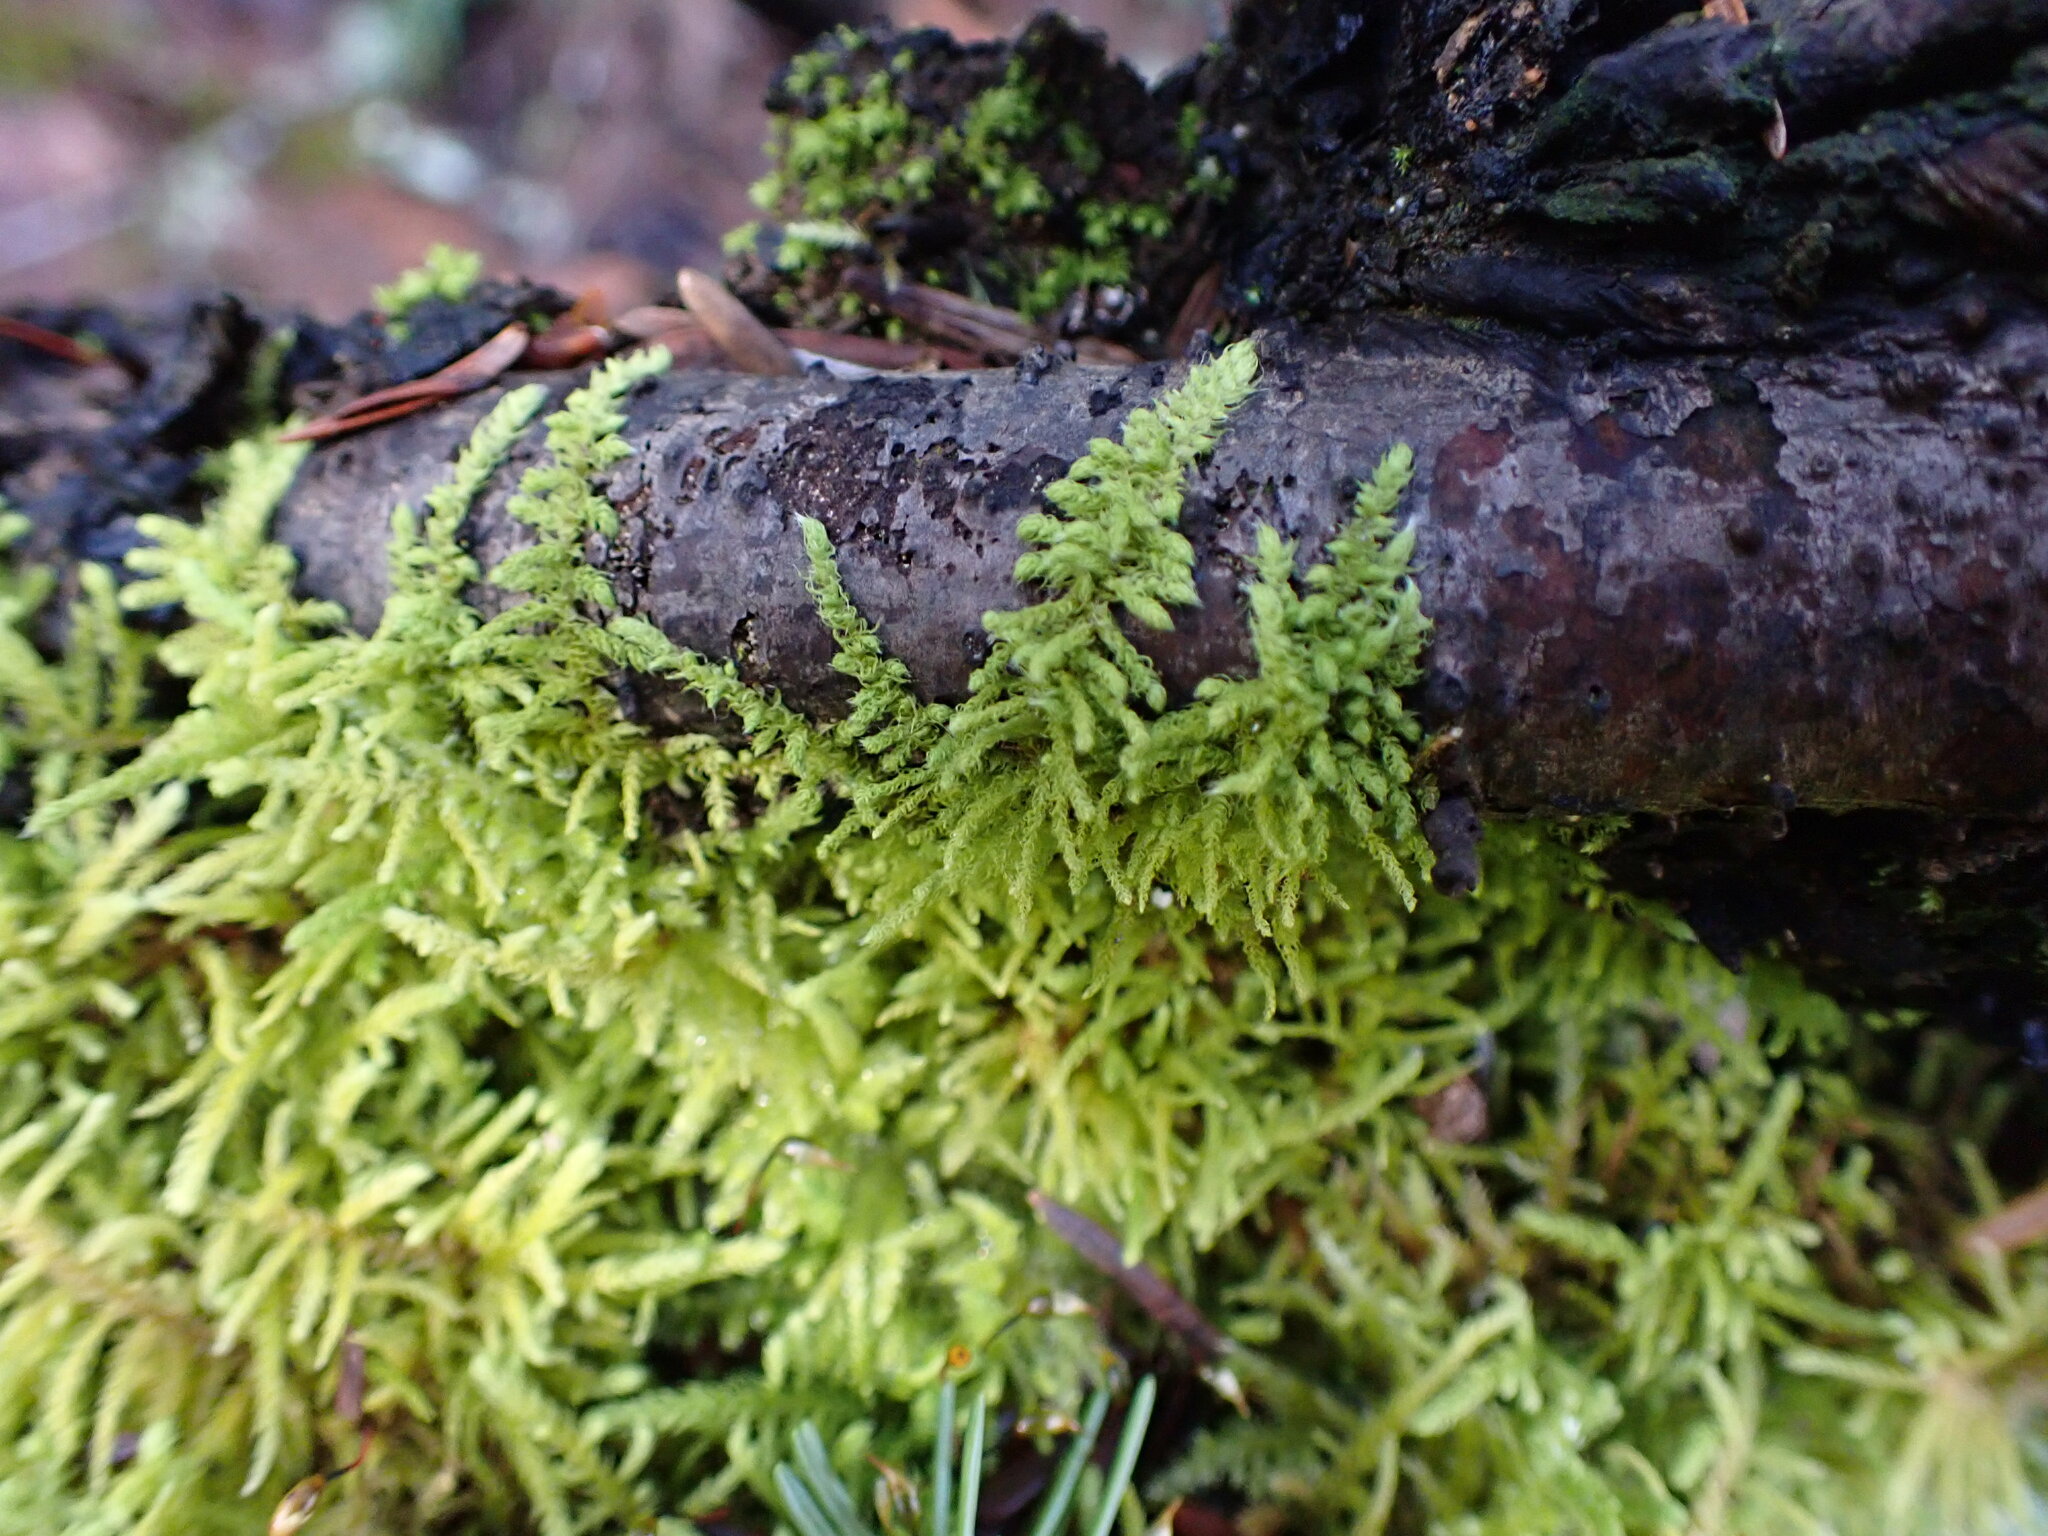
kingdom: Plantae
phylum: Bryophyta
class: Bryopsida
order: Hypnales
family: Brachytheciaceae
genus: Claopodium
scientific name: Claopodium crispifolium
